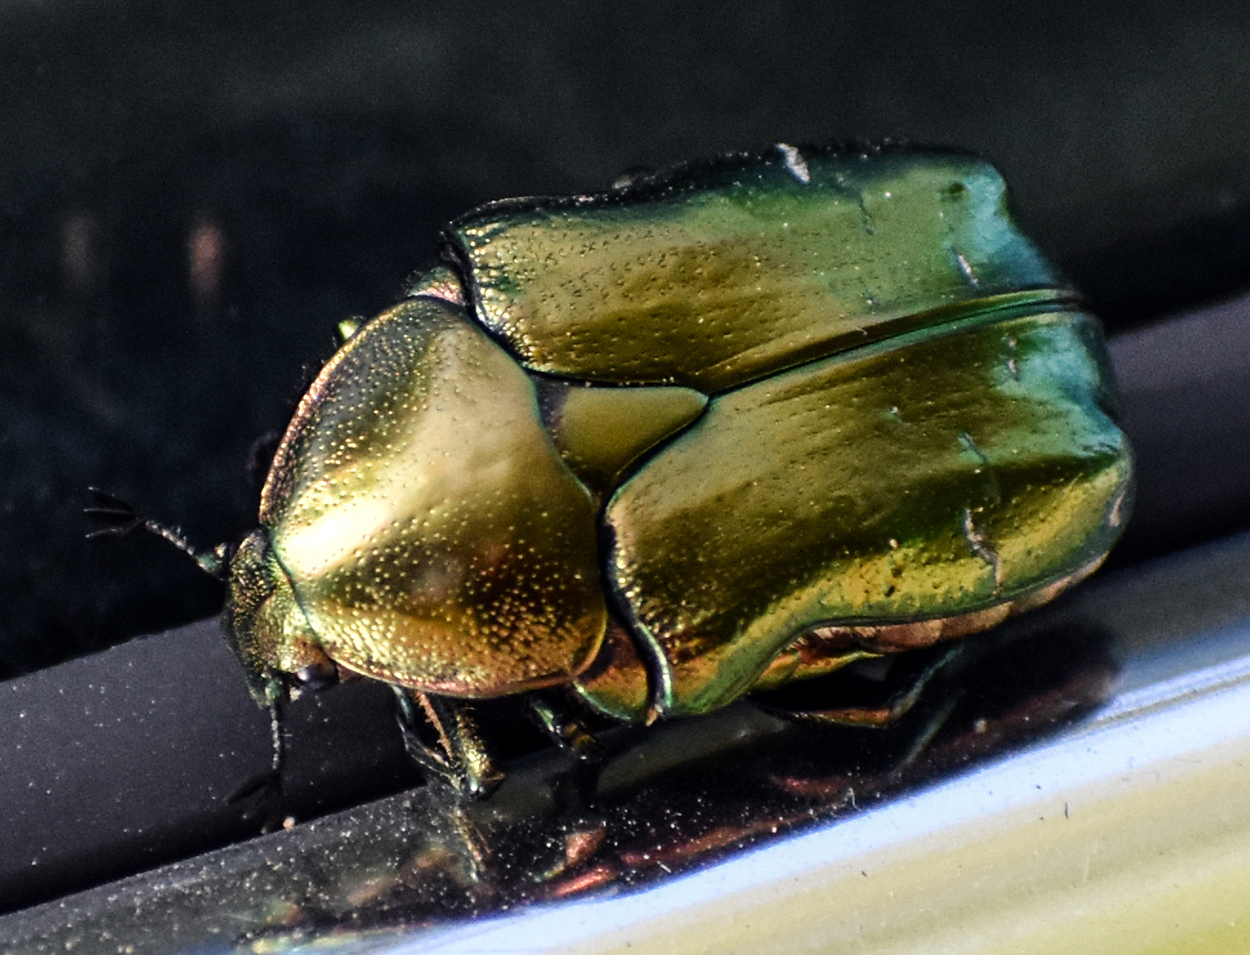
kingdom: Animalia
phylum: Arthropoda
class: Insecta
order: Coleoptera
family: Scarabaeidae
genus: Cetonia
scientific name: Cetonia aurata
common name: Rose chafer
